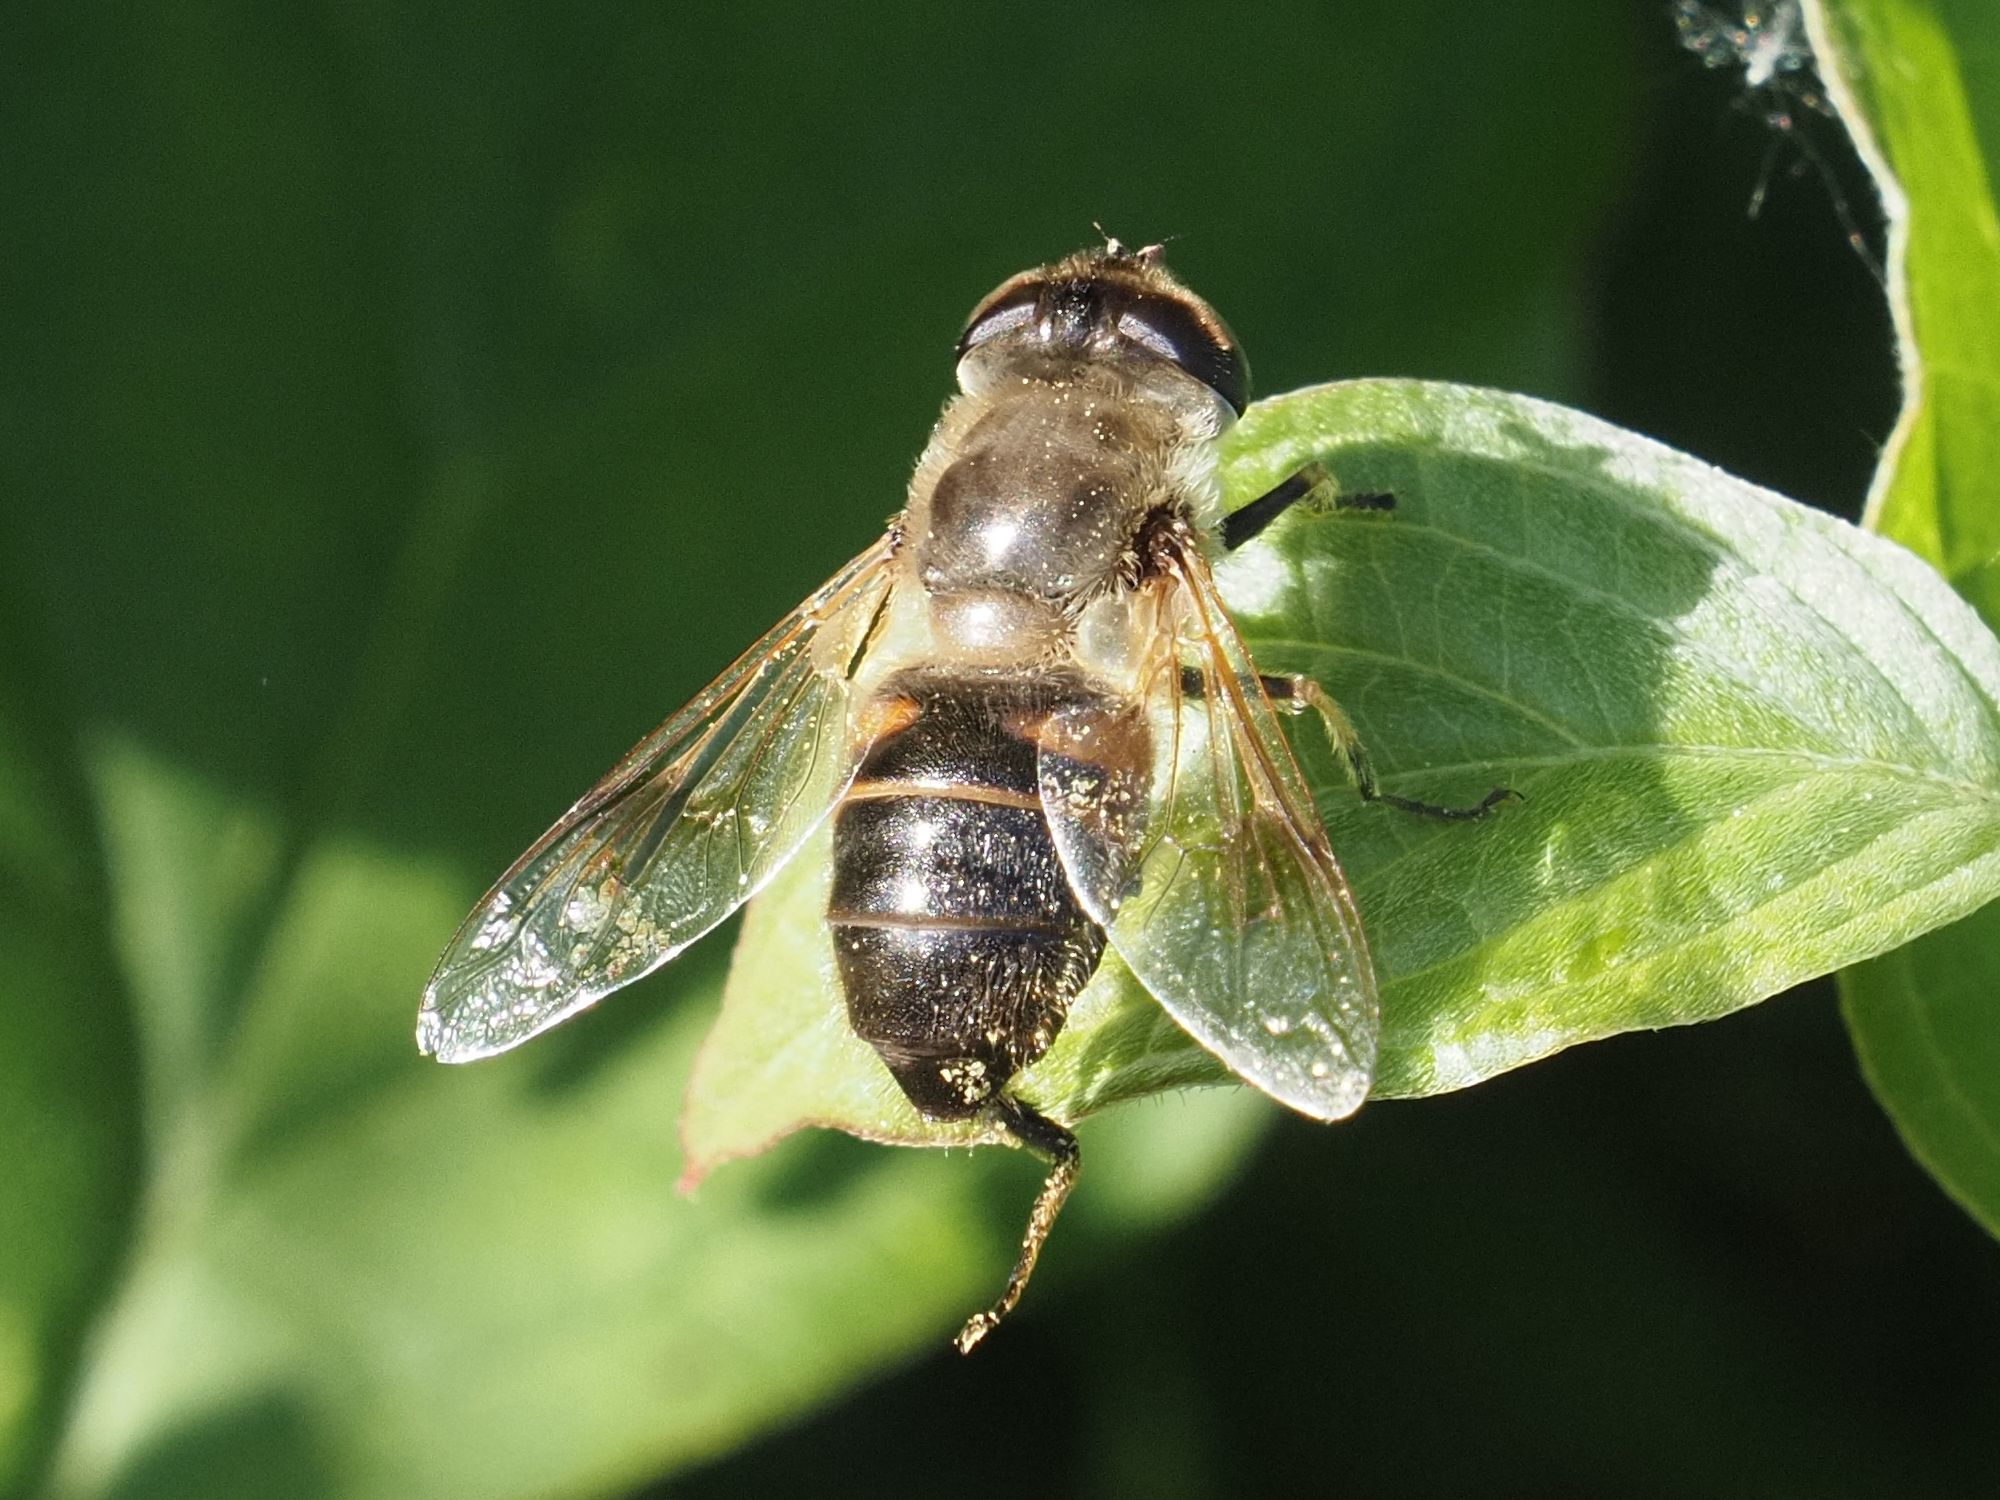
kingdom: Animalia
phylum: Arthropoda
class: Insecta
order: Diptera
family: Syrphidae
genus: Eristalis
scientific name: Eristalis tenax
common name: Drone fly
